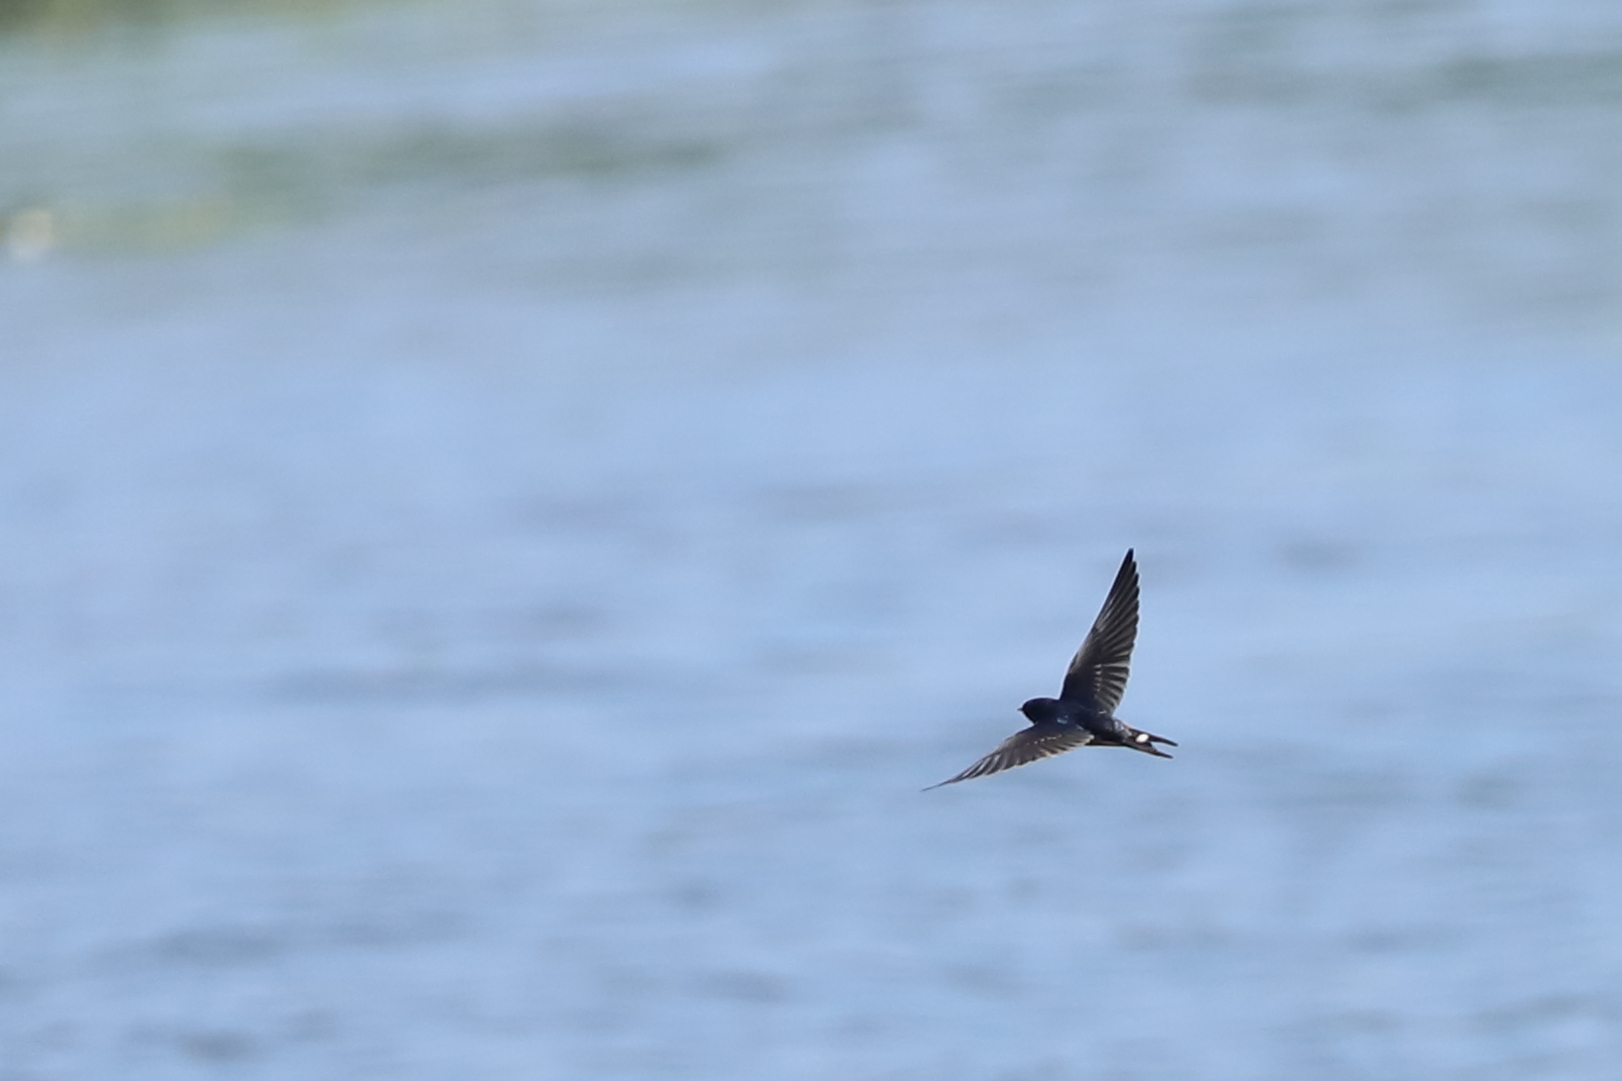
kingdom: Animalia
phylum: Chordata
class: Aves
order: Passeriformes
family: Hirundinidae
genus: Hirundo
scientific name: Hirundo rustica
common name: Barn swallow
